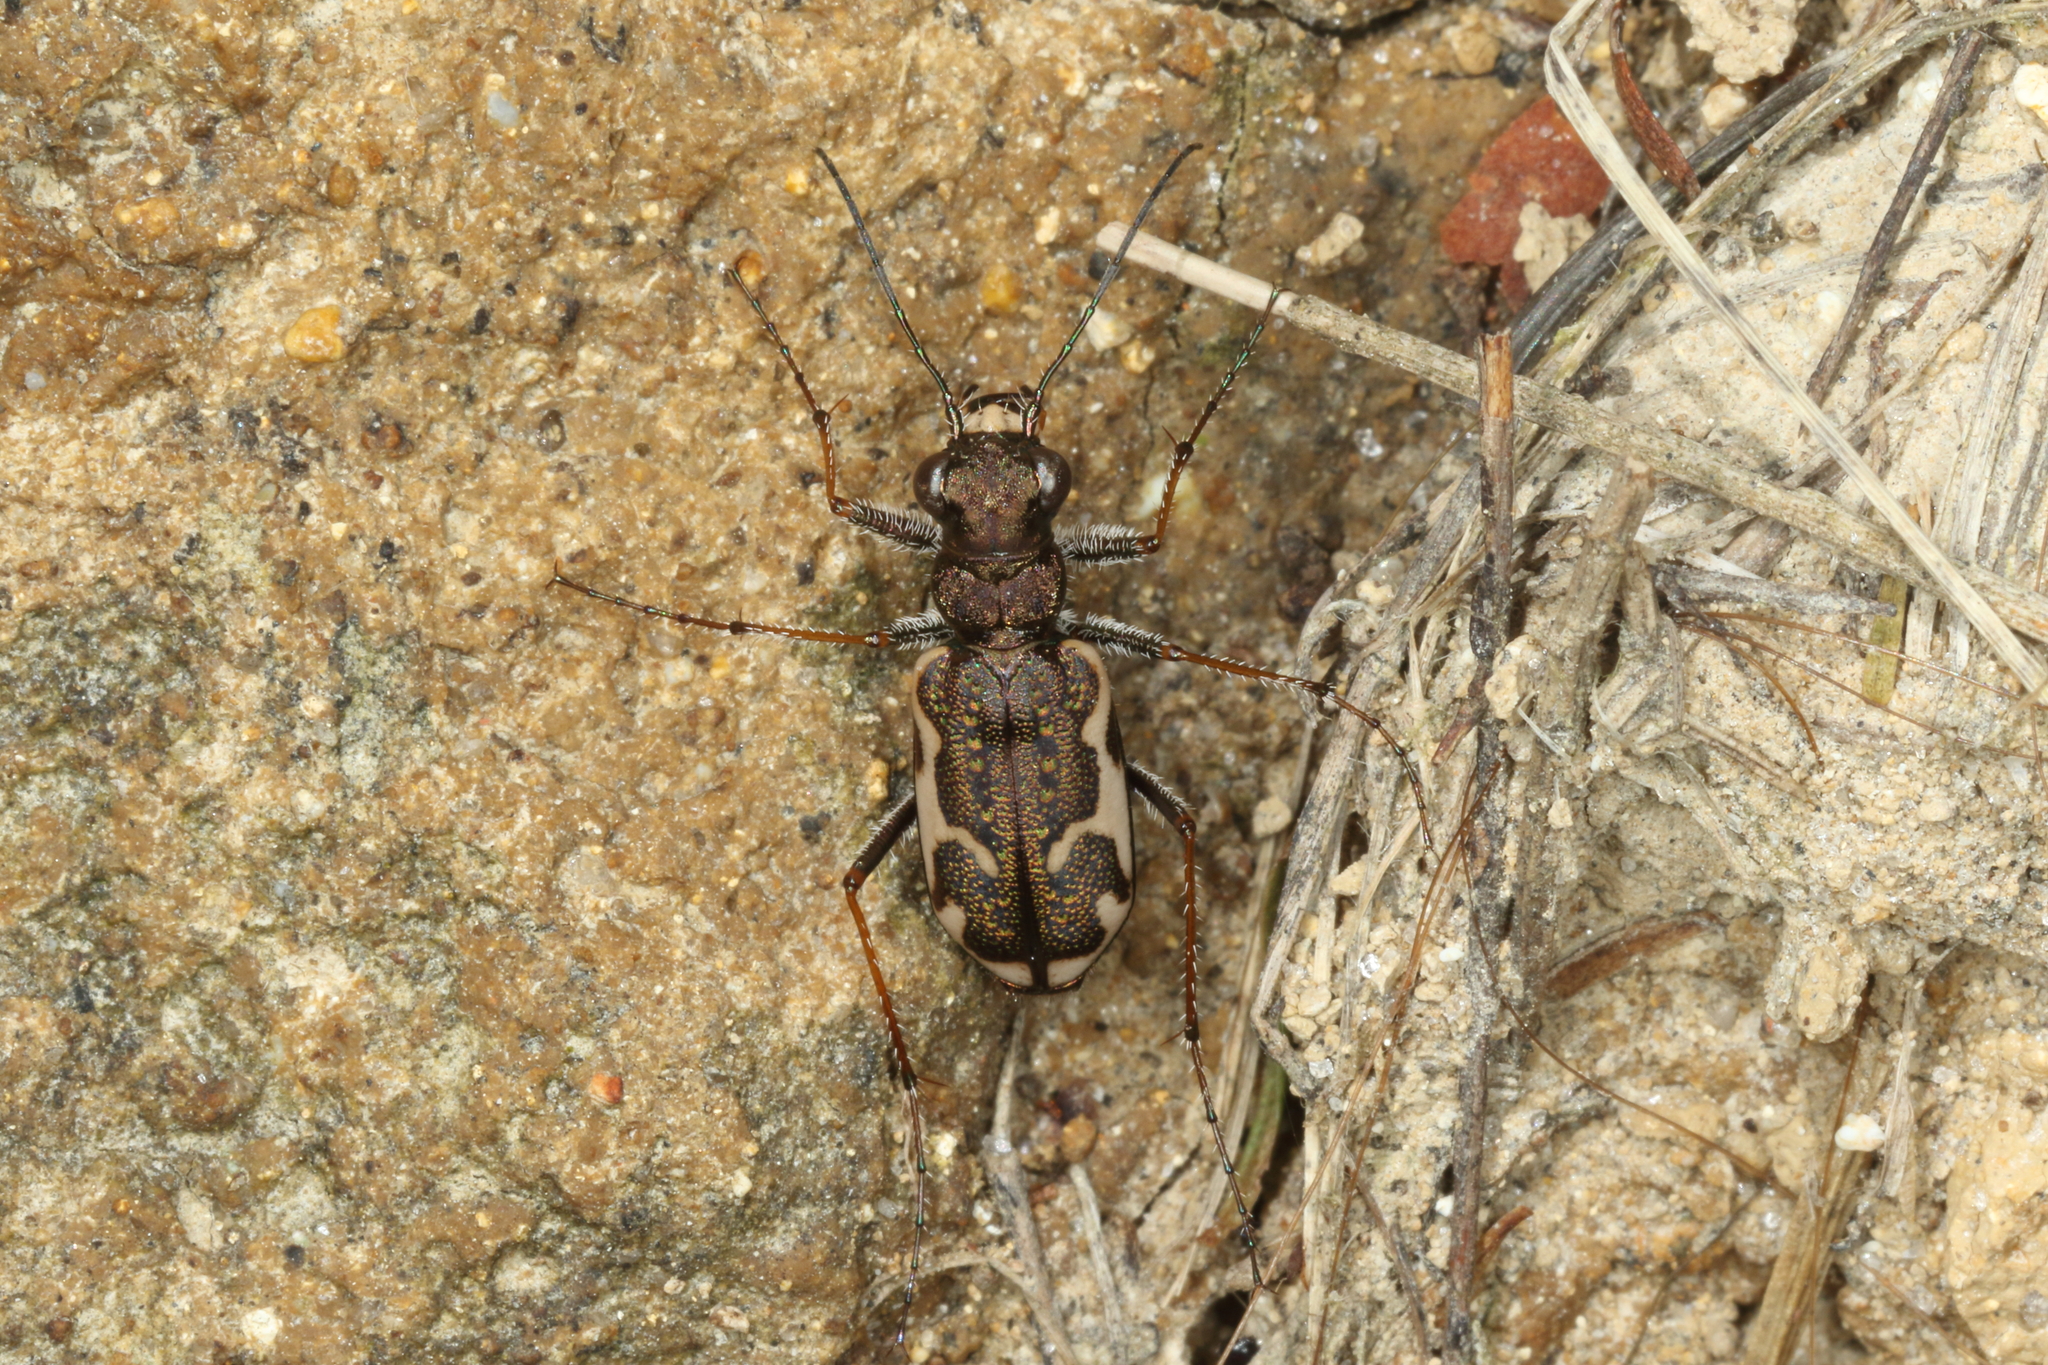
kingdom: Animalia
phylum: Arthropoda
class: Insecta
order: Coleoptera
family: Carabidae
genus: Neocicindela
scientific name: Neocicindela tuberculata
